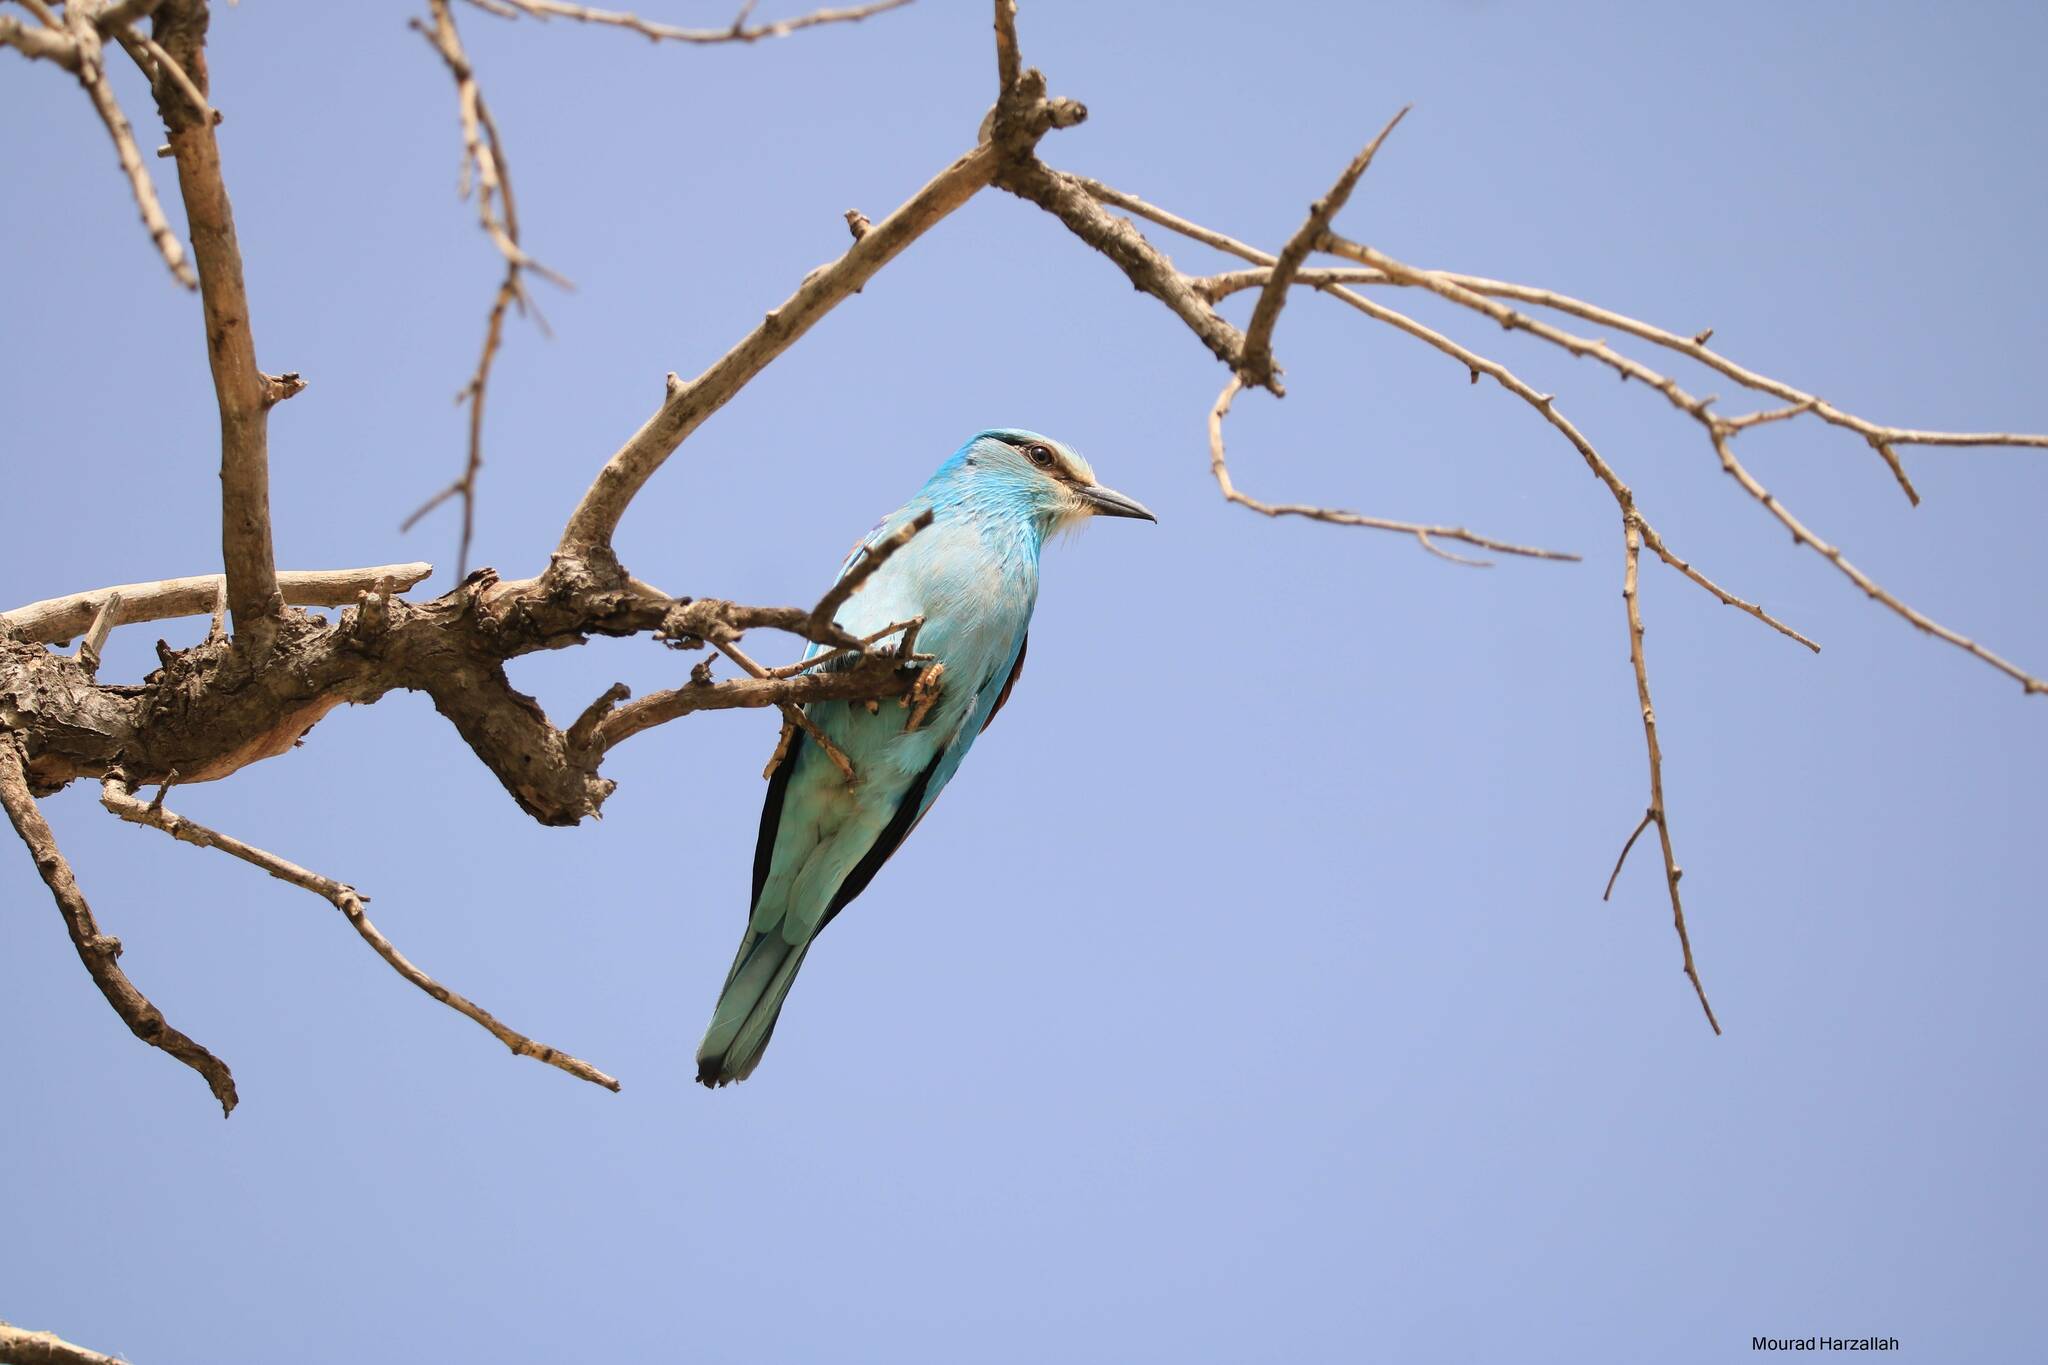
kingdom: Animalia
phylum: Chordata
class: Aves
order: Coraciiformes
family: Coraciidae
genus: Coracias
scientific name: Coracias garrulus
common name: European roller
